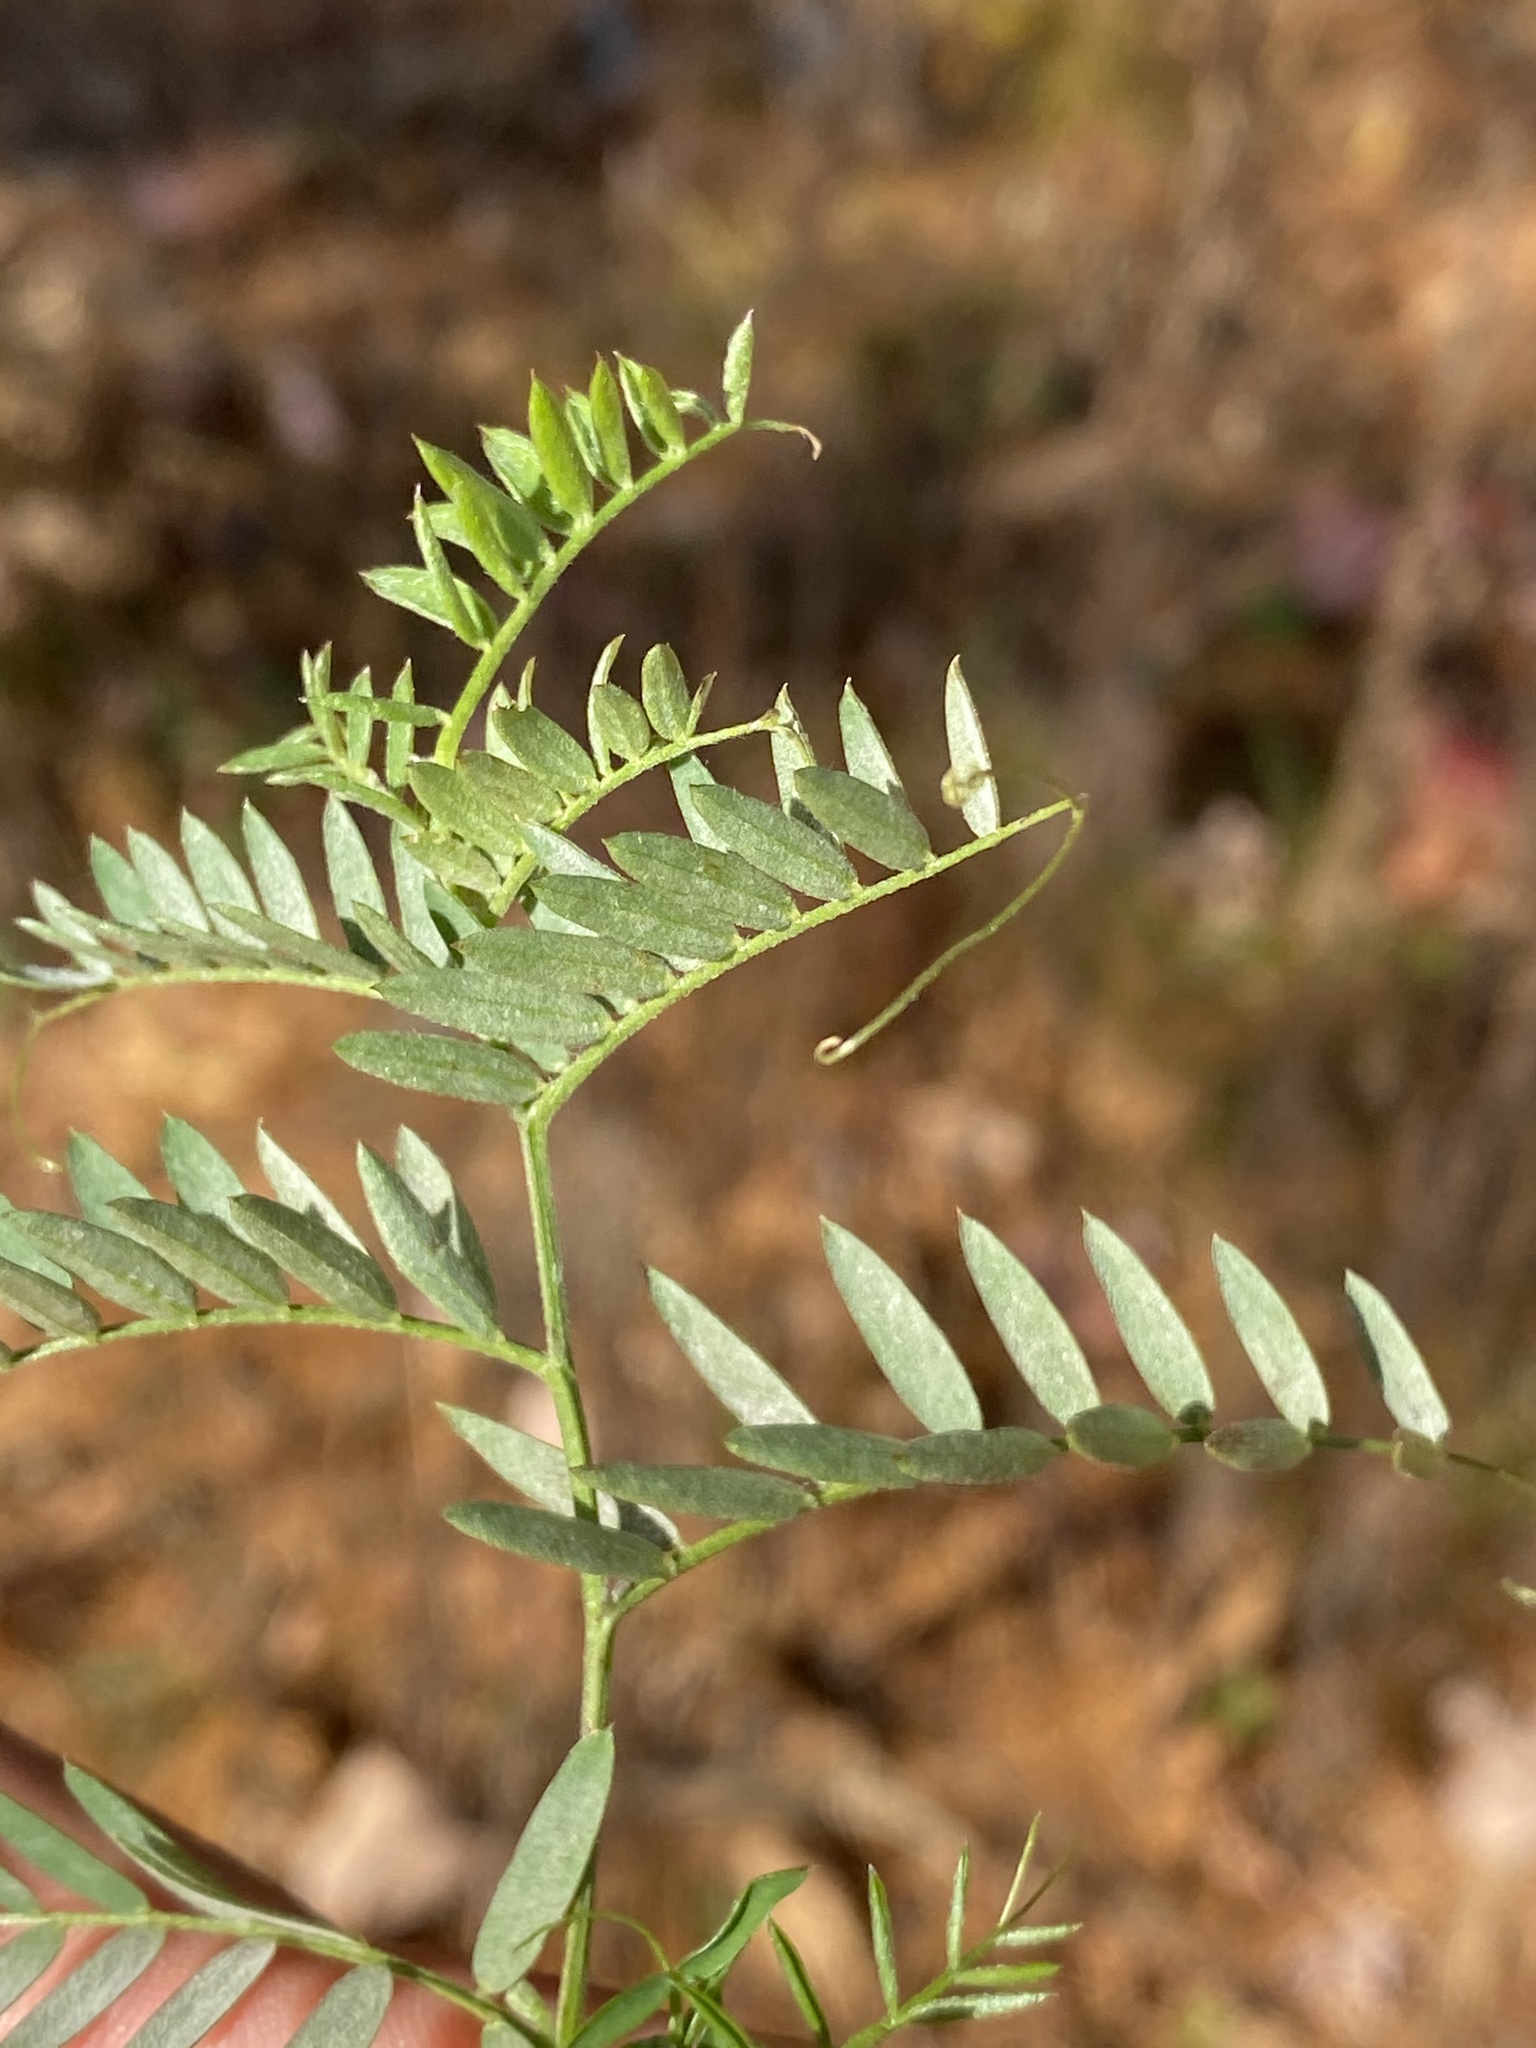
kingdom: Plantae
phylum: Tracheophyta
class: Magnoliopsida
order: Fabales
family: Fabaceae
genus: Vicia
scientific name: Vicia cracca
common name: Bird vetch
